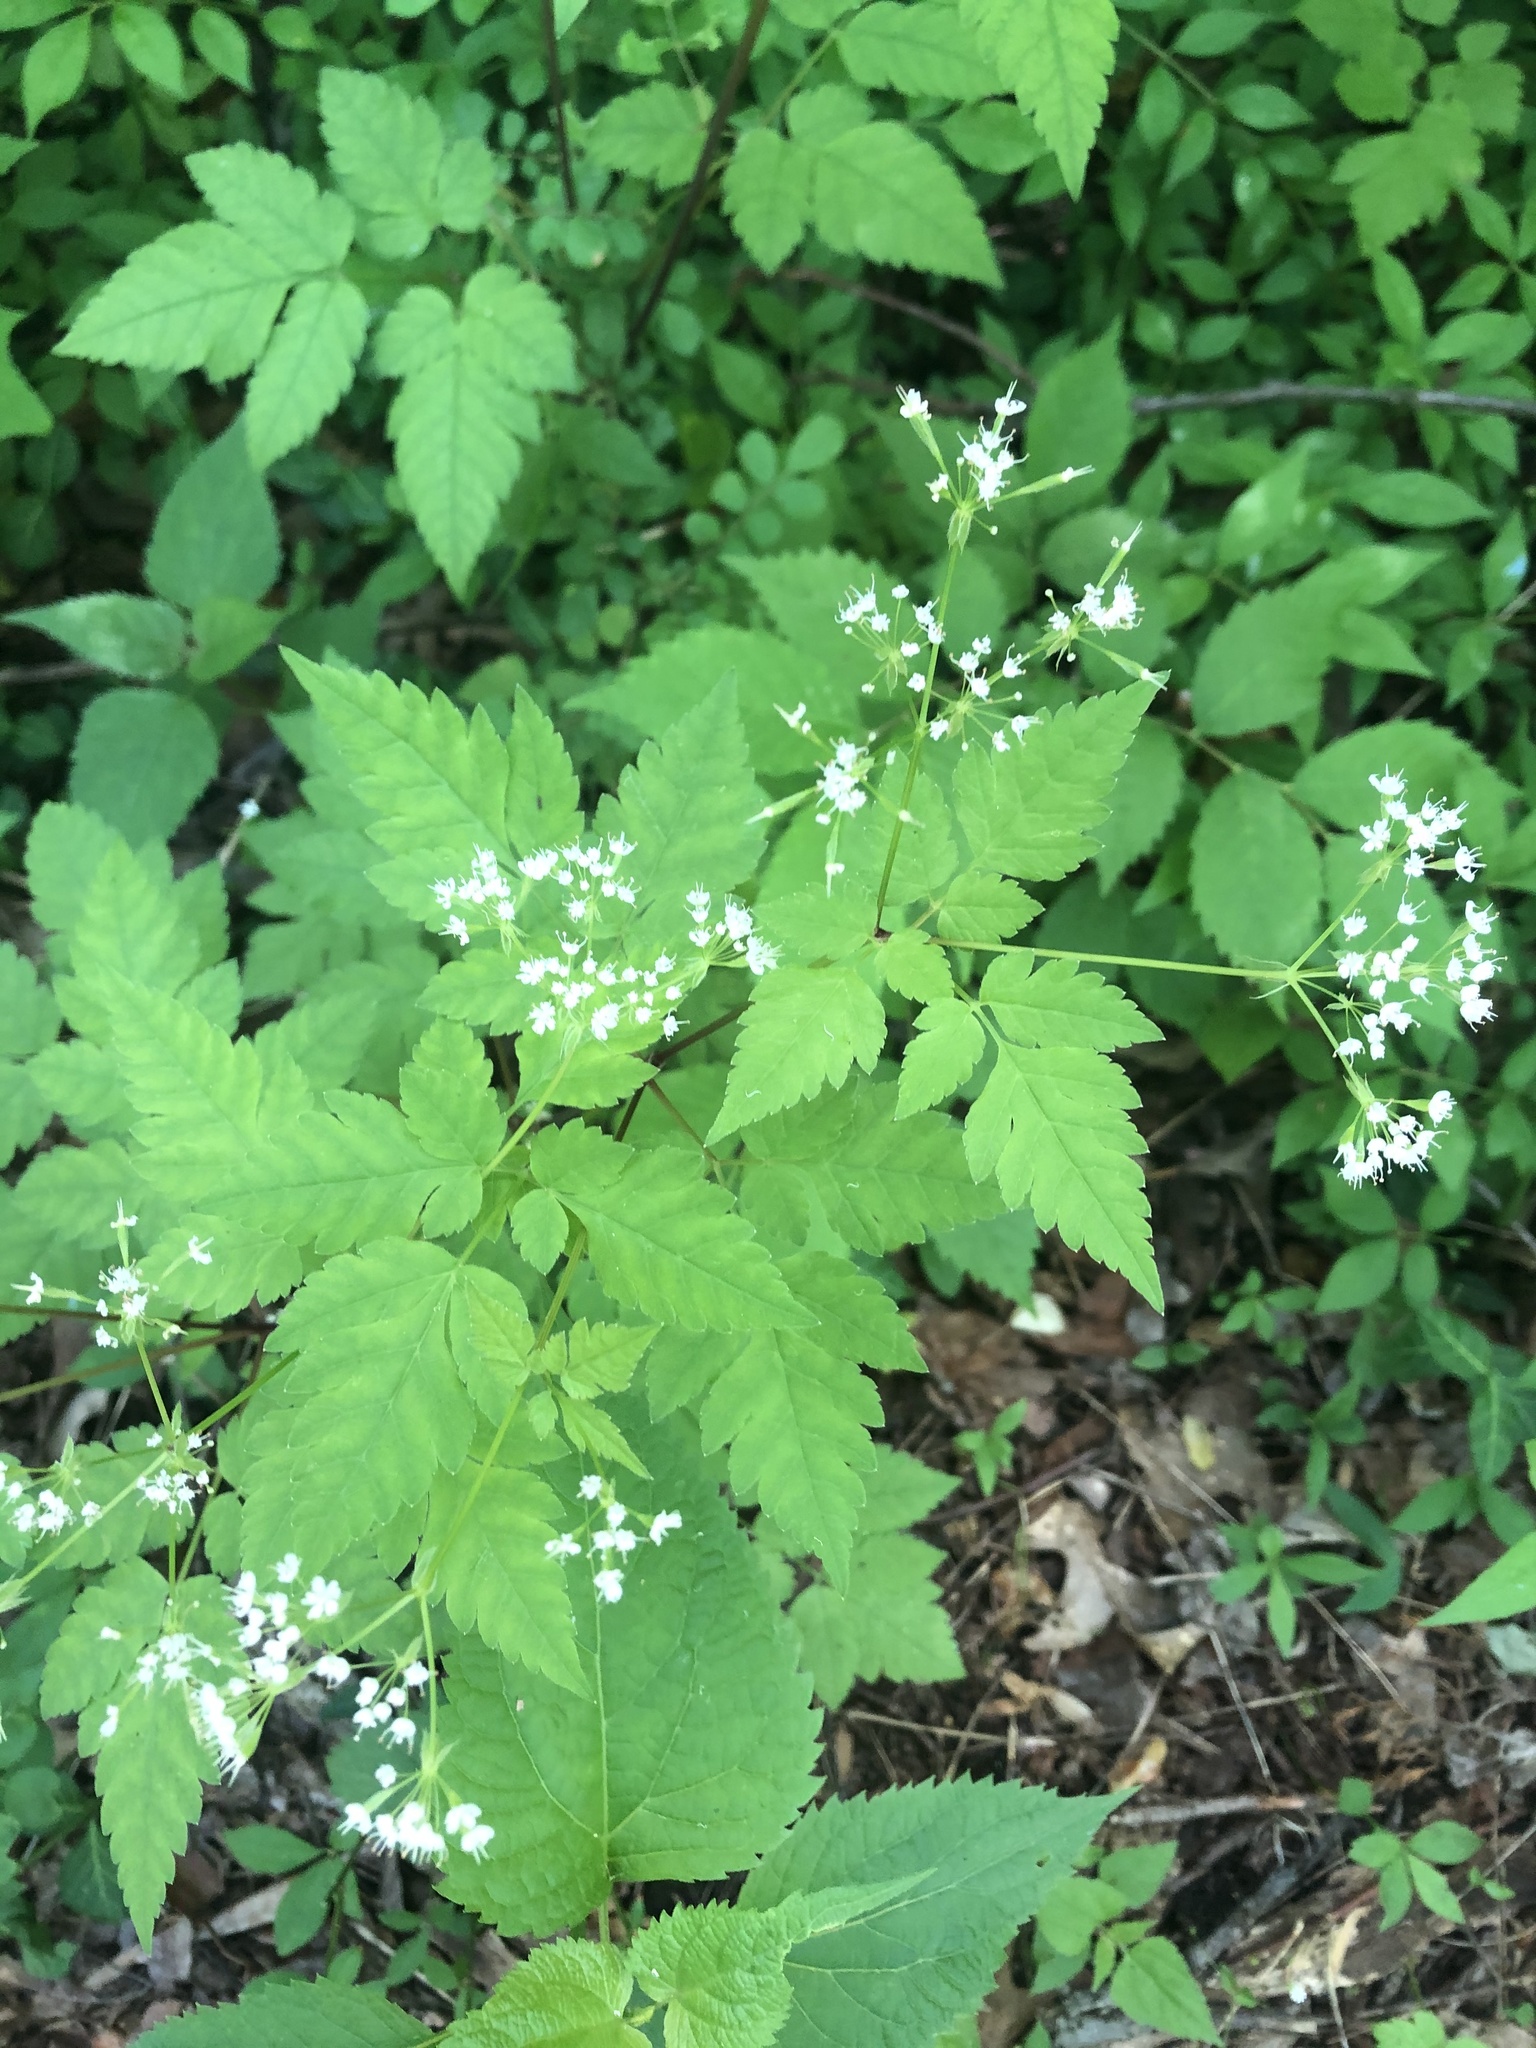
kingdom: Plantae
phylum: Tracheophyta
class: Magnoliopsida
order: Apiales
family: Apiaceae
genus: Osmorhiza
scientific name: Osmorhiza longistylis
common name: Smooth sweet cicely
